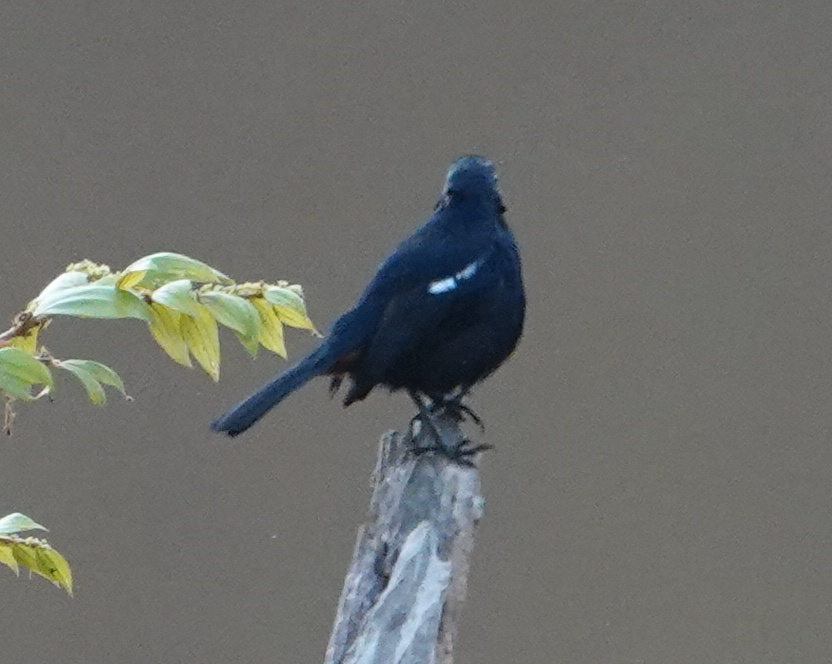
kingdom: Animalia
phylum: Chordata
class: Aves
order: Passeriformes
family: Muscicapidae
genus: Saxicoloides
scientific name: Saxicoloides fulicatus
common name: Indian robin
